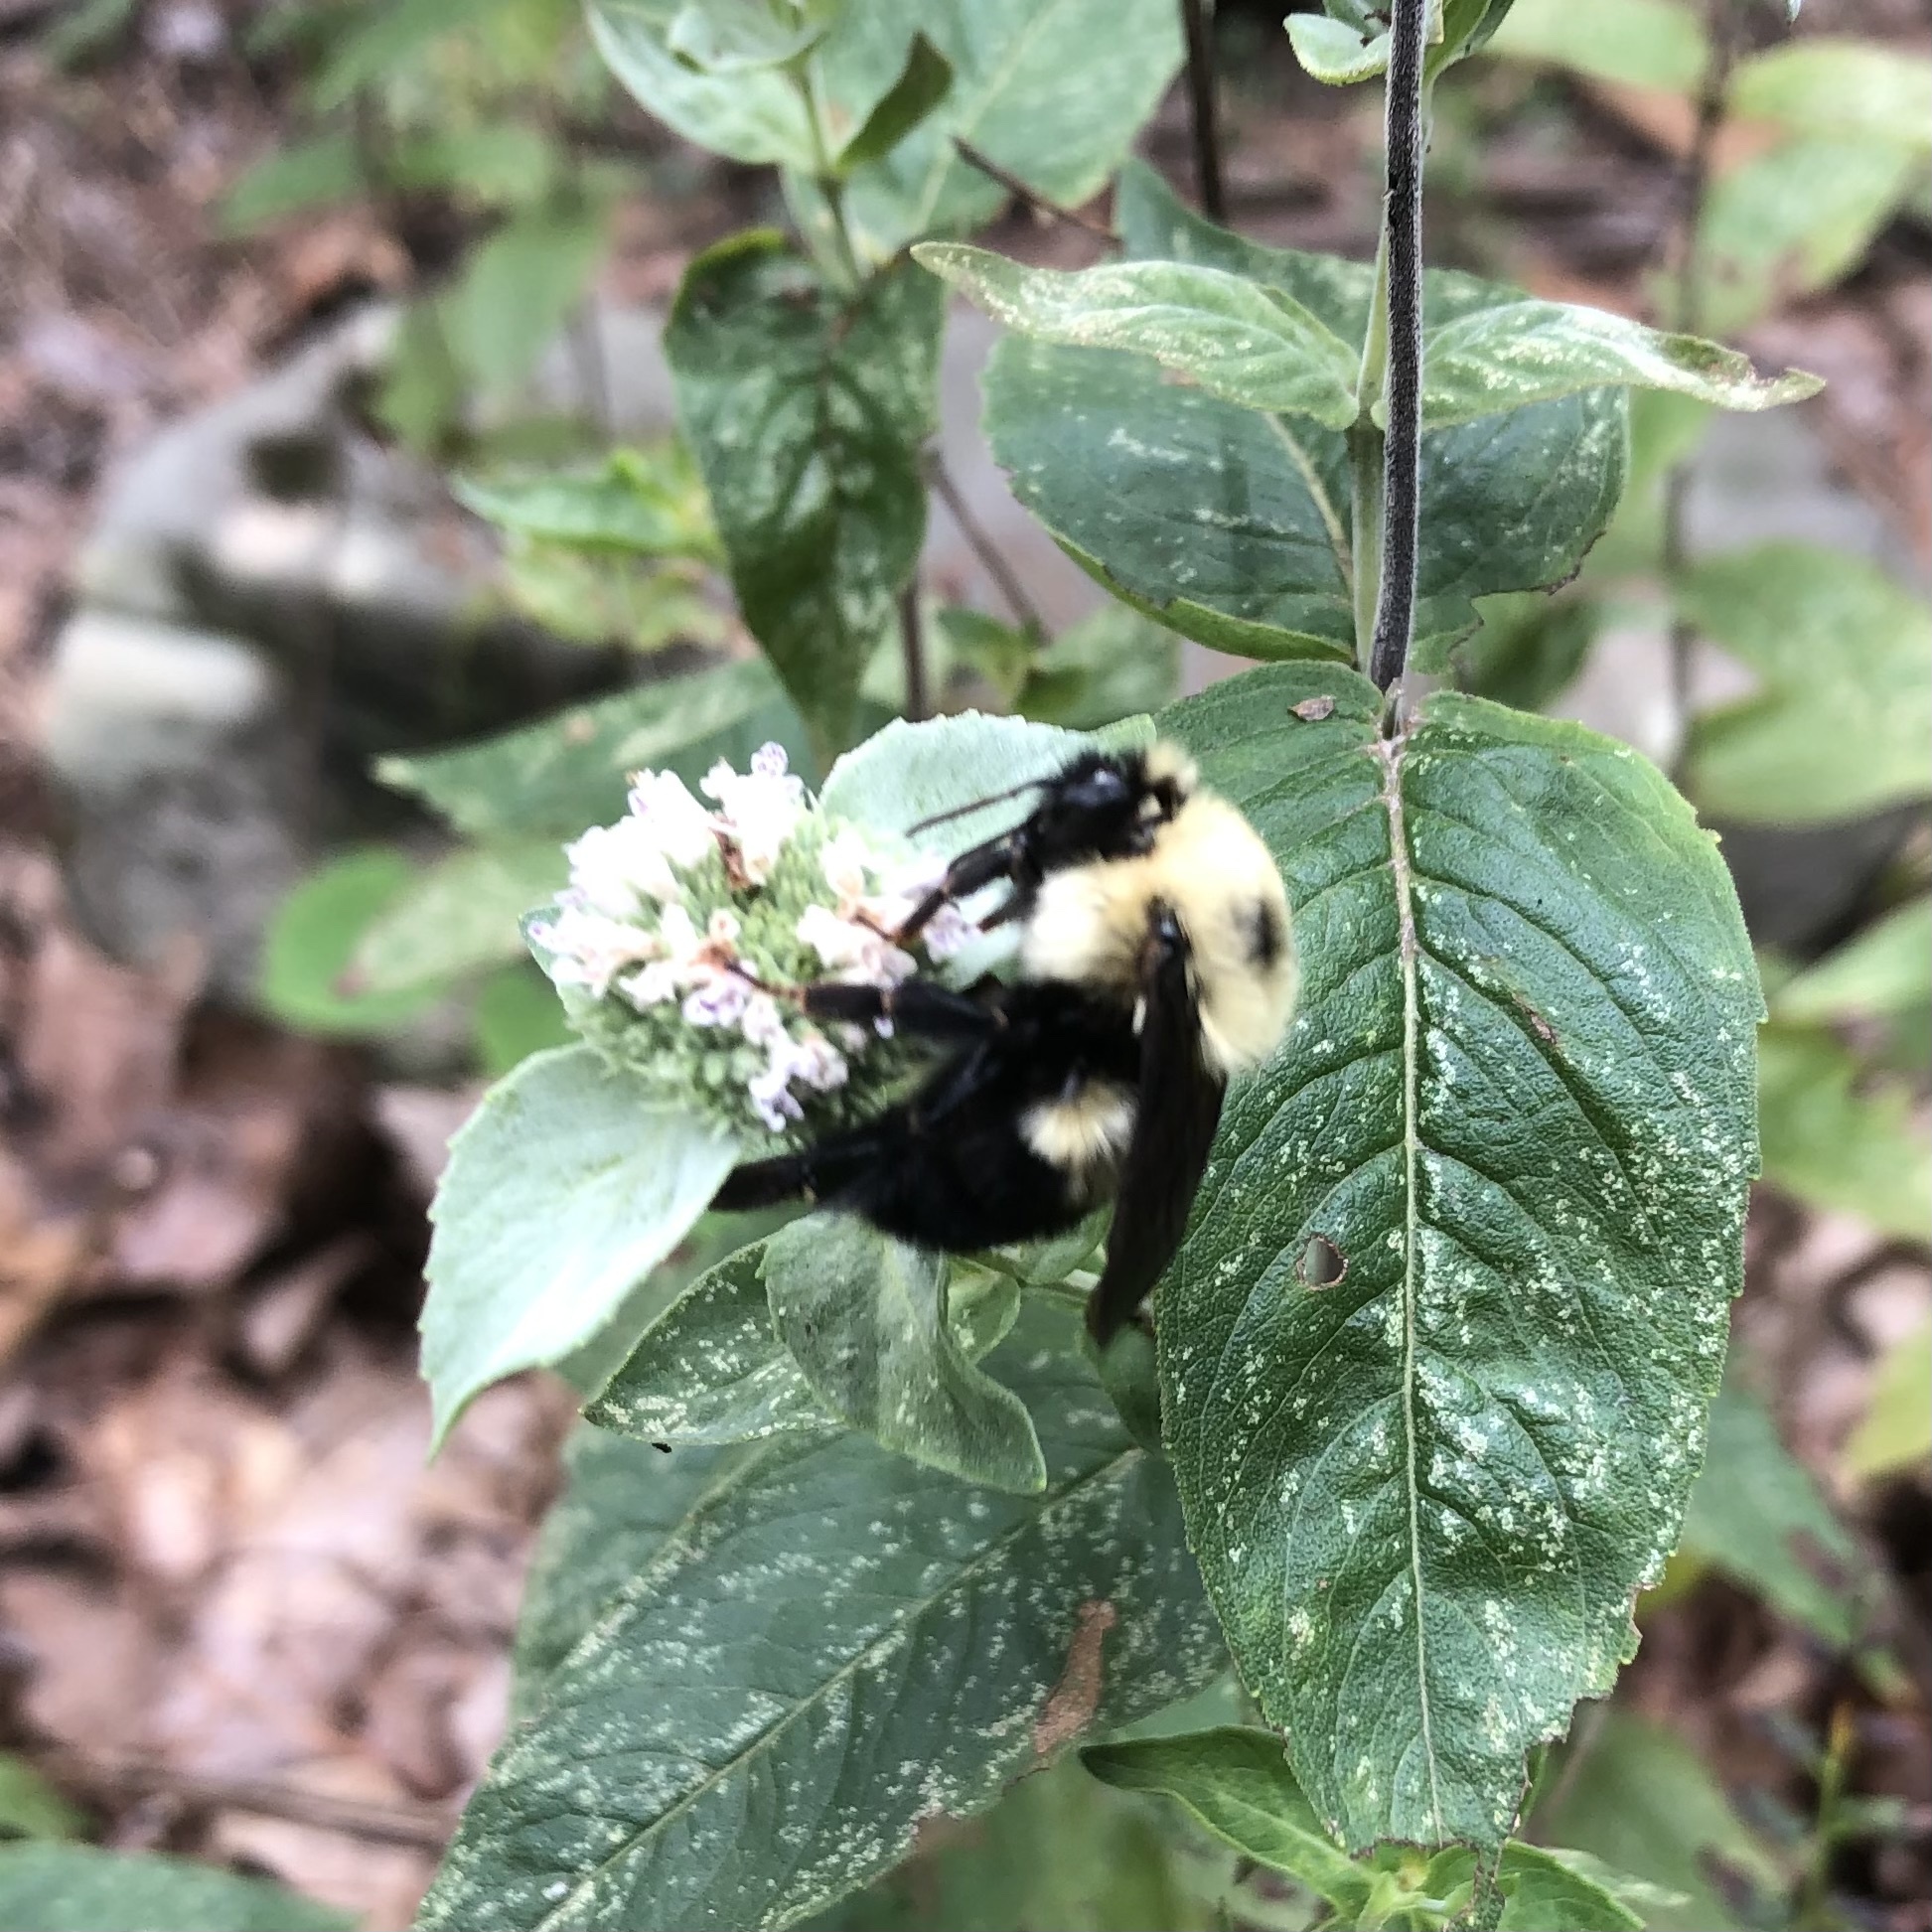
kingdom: Animalia
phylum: Arthropoda
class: Insecta
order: Hymenoptera
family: Apidae
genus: Bombus
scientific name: Bombus bimaculatus
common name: Two-spotted bumble bee
